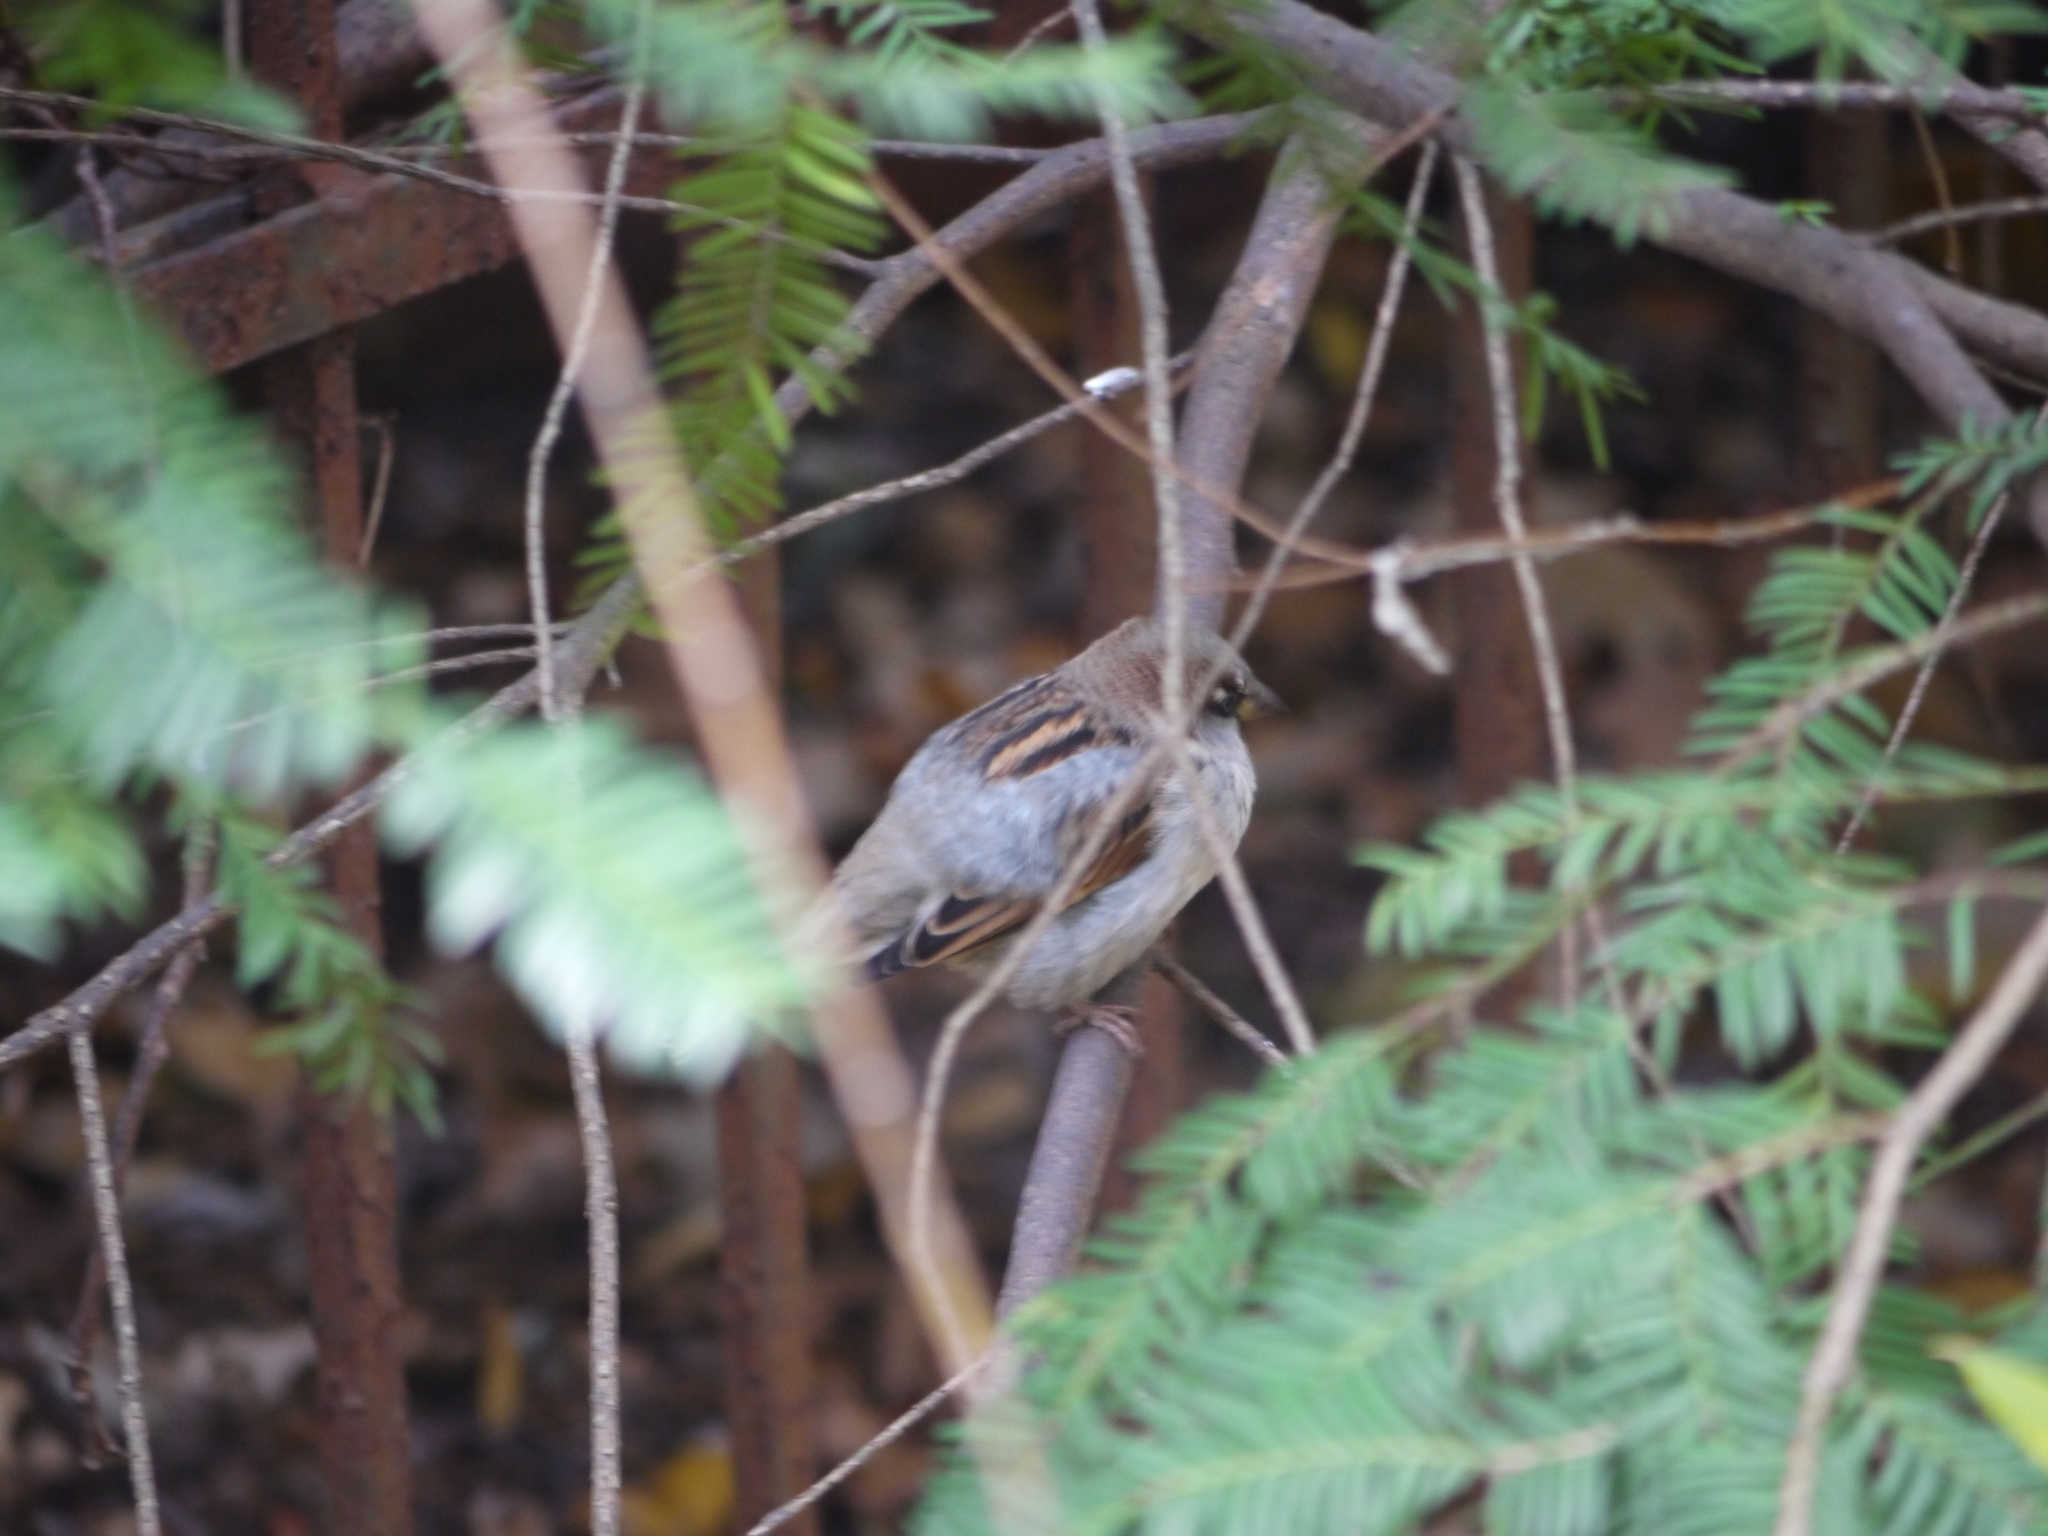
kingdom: Animalia
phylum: Chordata
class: Aves
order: Passeriformes
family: Passeridae
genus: Passer
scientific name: Passer domesticus
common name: House sparrow
